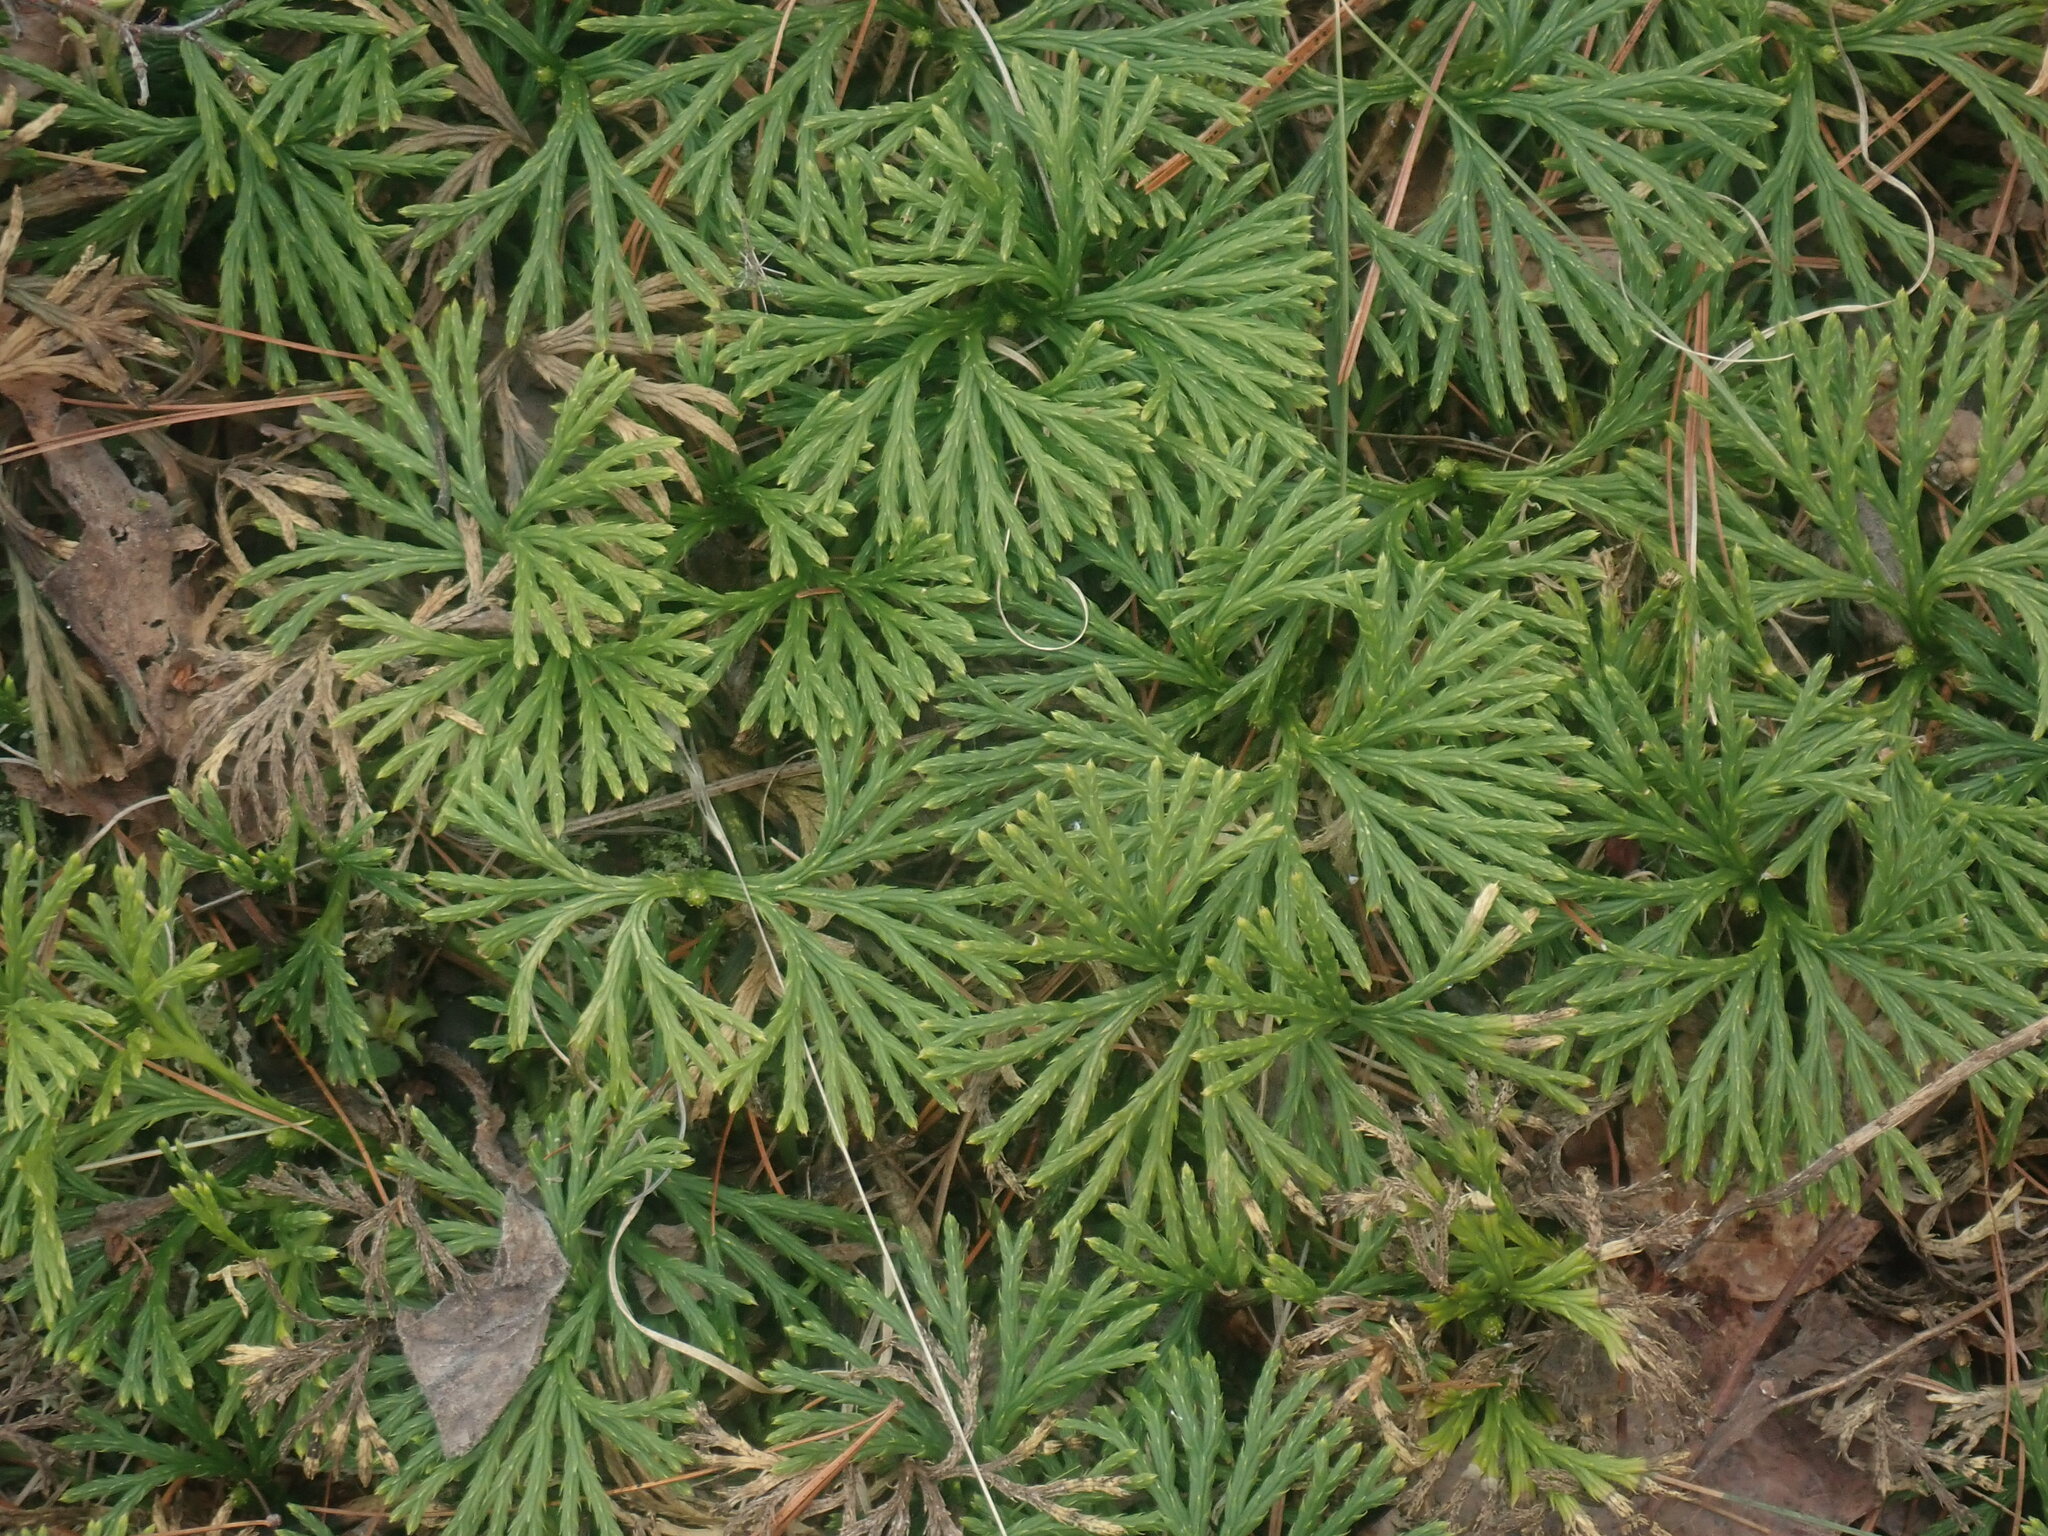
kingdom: Plantae
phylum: Tracheophyta
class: Lycopodiopsida
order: Lycopodiales
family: Lycopodiaceae
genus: Diphasiastrum
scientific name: Diphasiastrum digitatum
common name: Southern running-pine
